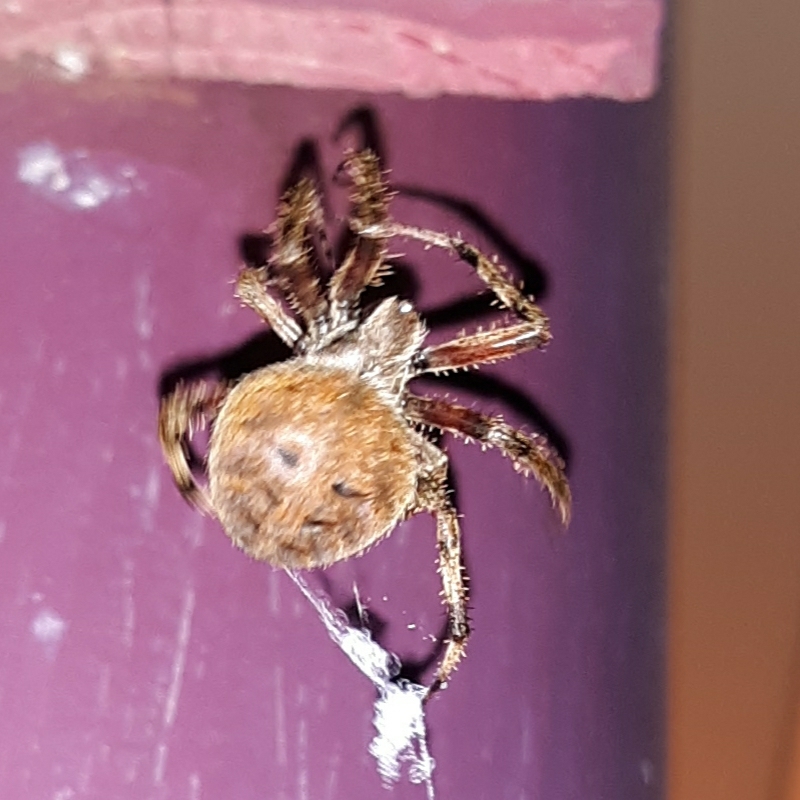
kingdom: Animalia
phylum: Arthropoda
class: Arachnida
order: Araneae
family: Araneidae
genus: Neoscona
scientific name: Neoscona crucifera
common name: Spotted orbweaver
